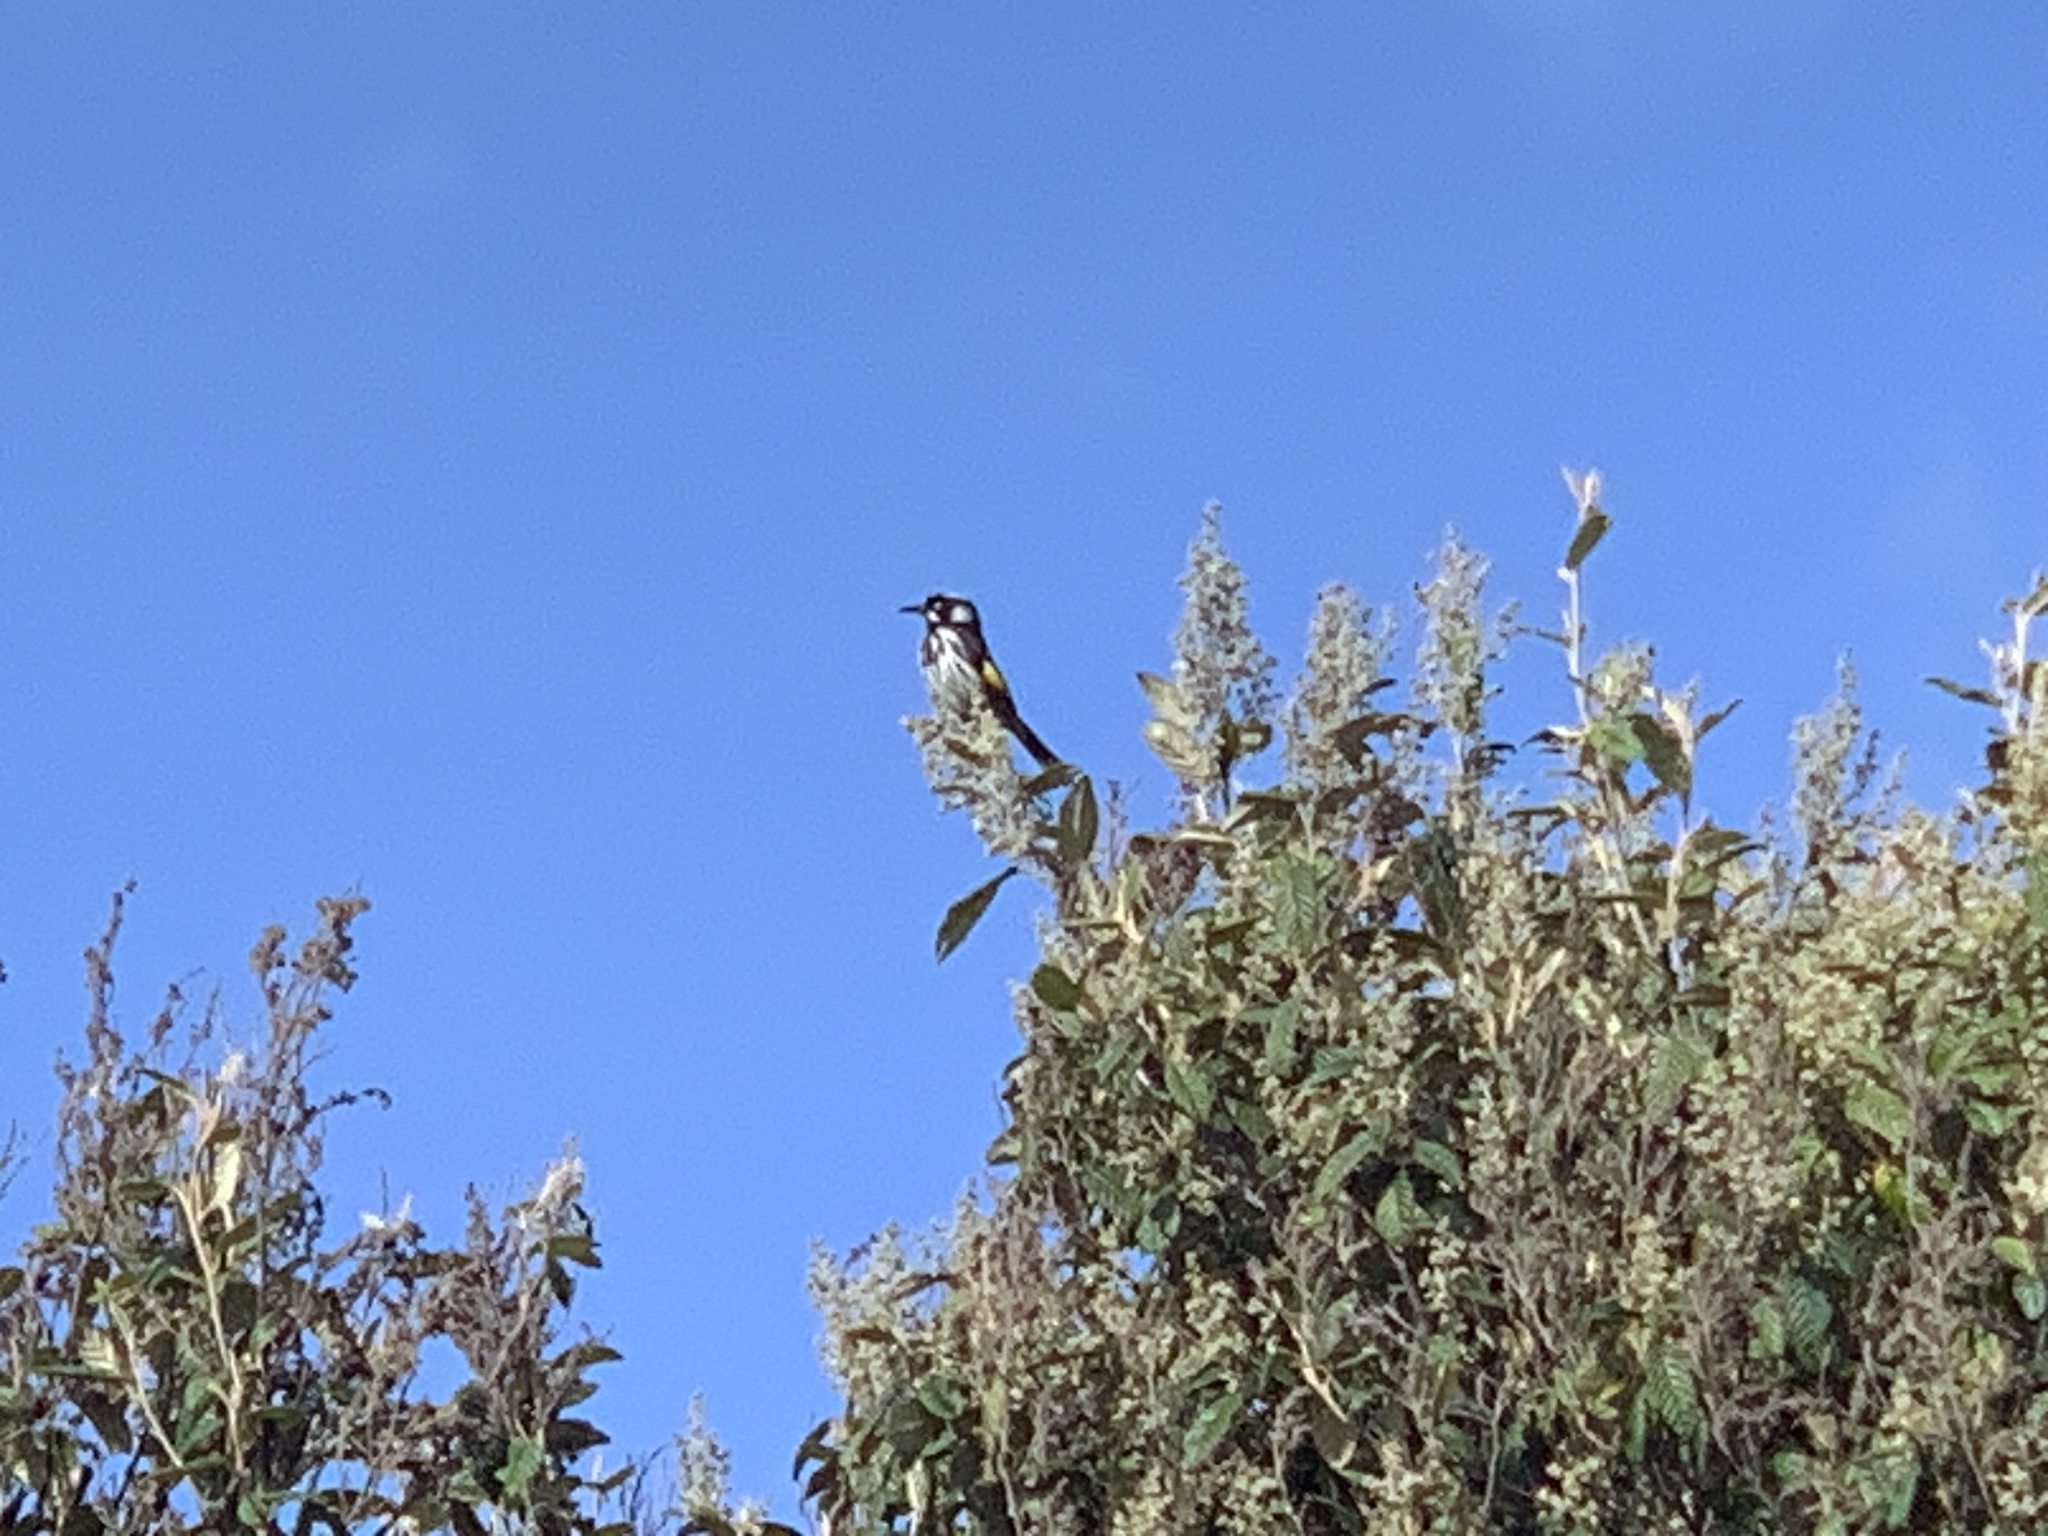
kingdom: Animalia
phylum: Chordata
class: Aves
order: Passeriformes
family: Meliphagidae
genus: Phylidonyris
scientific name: Phylidonyris novaehollandiae
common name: New holland honeyeater
